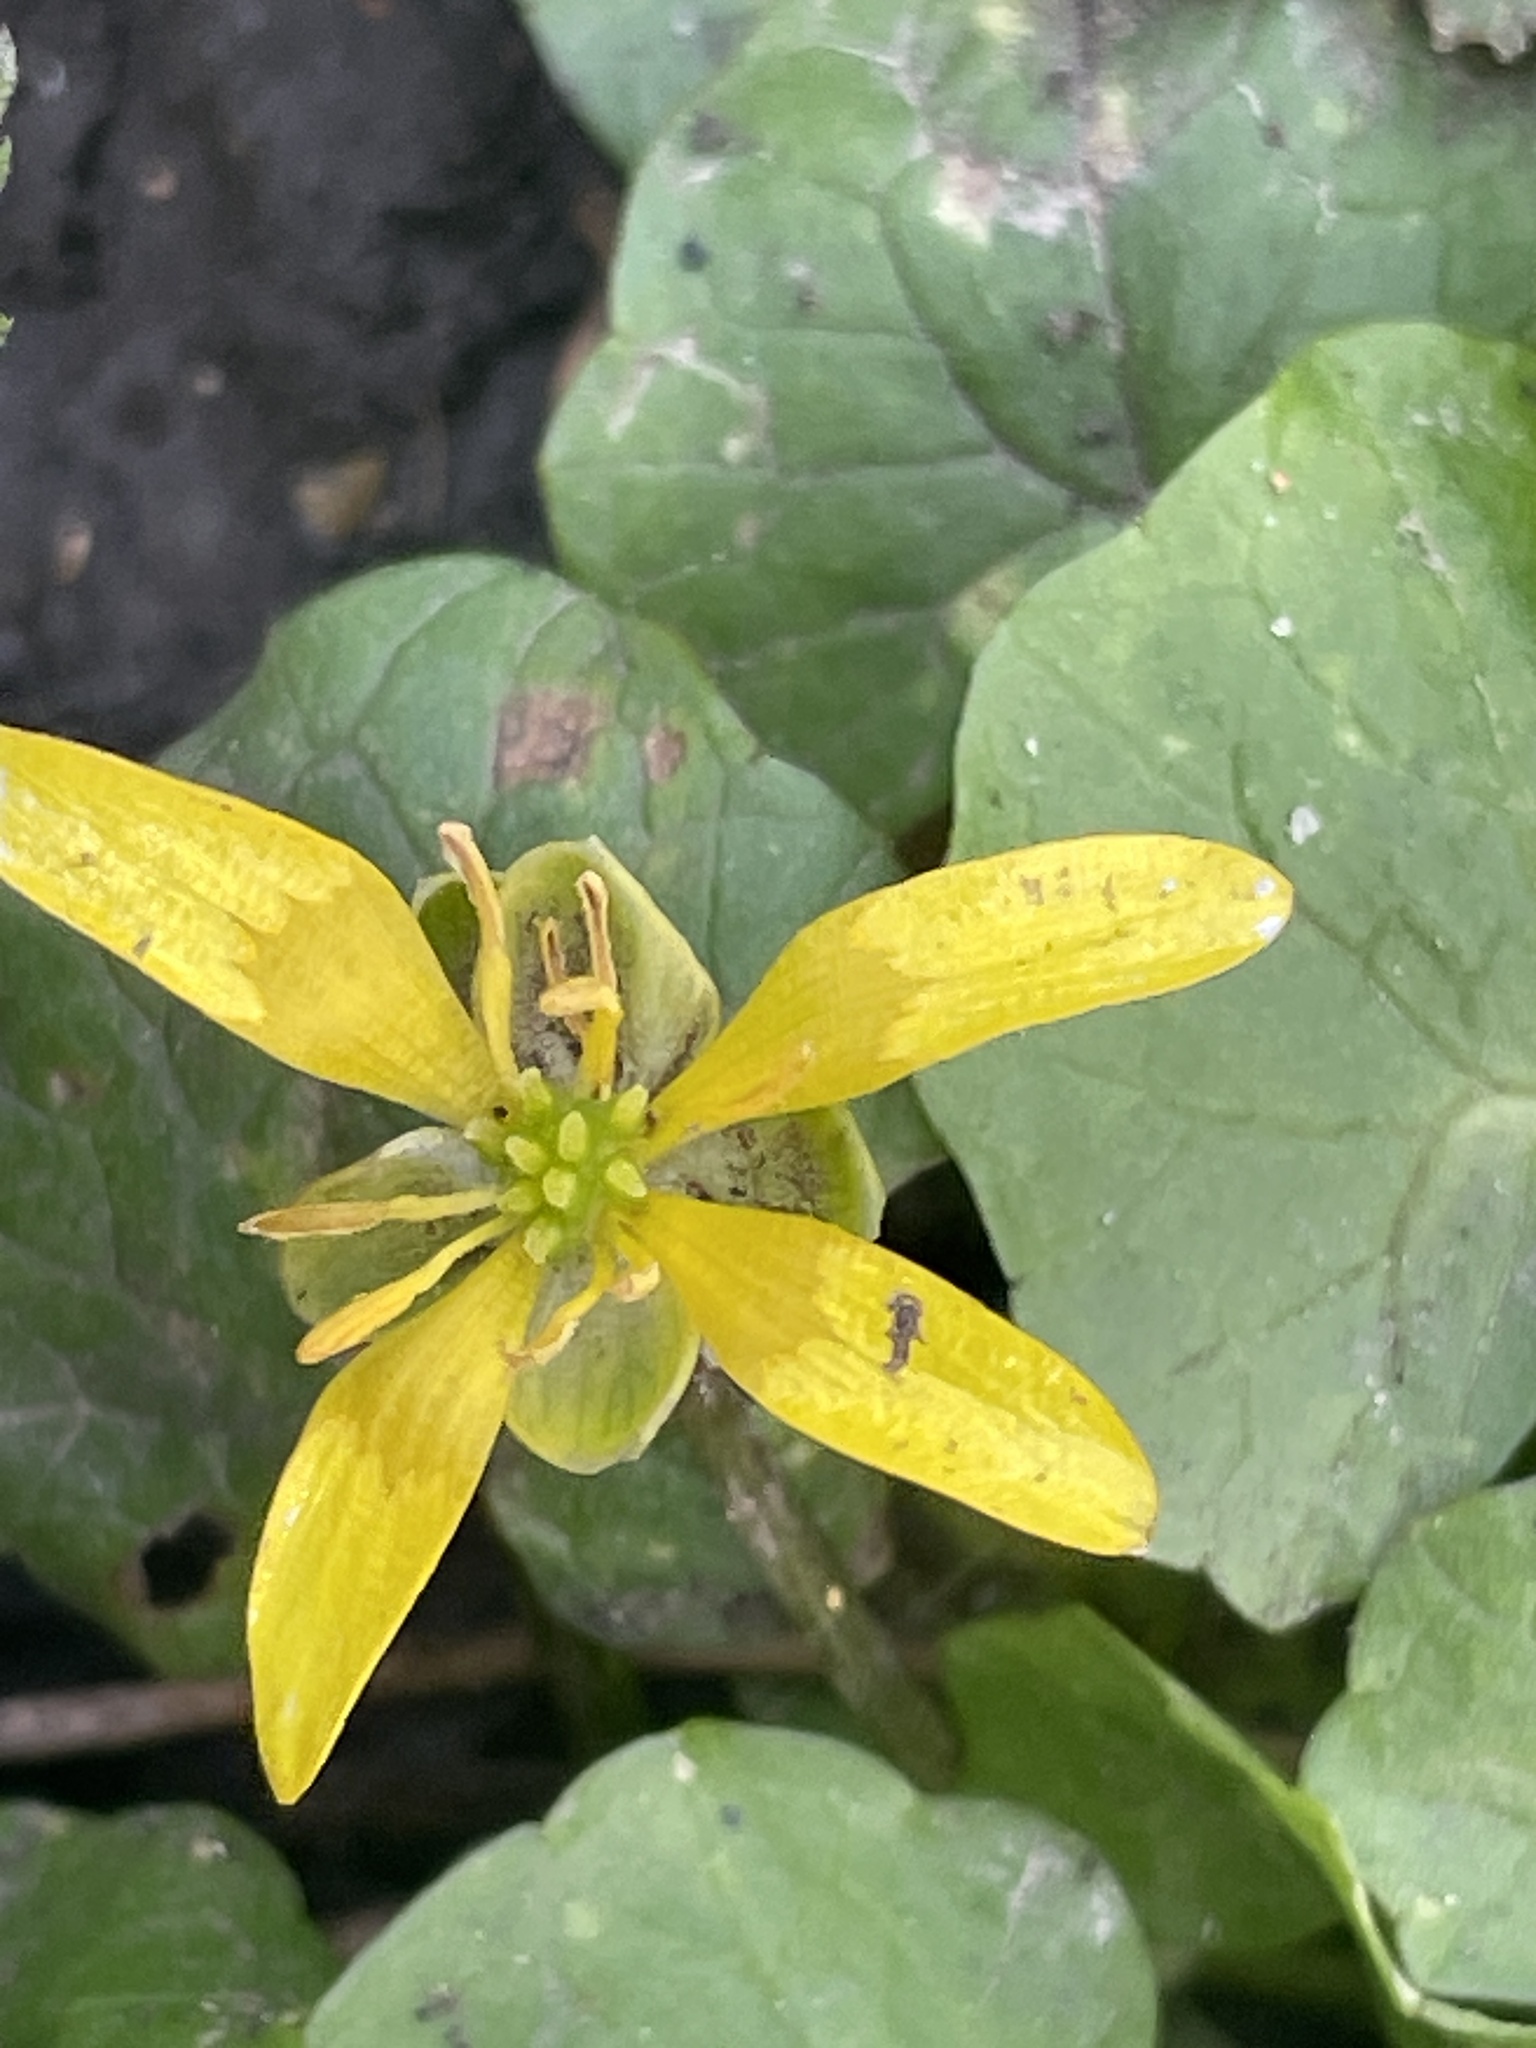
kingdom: Plantae
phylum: Tracheophyta
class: Magnoliopsida
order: Ranunculales
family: Ranunculaceae
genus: Ficaria
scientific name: Ficaria verna
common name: Lesser celandine
